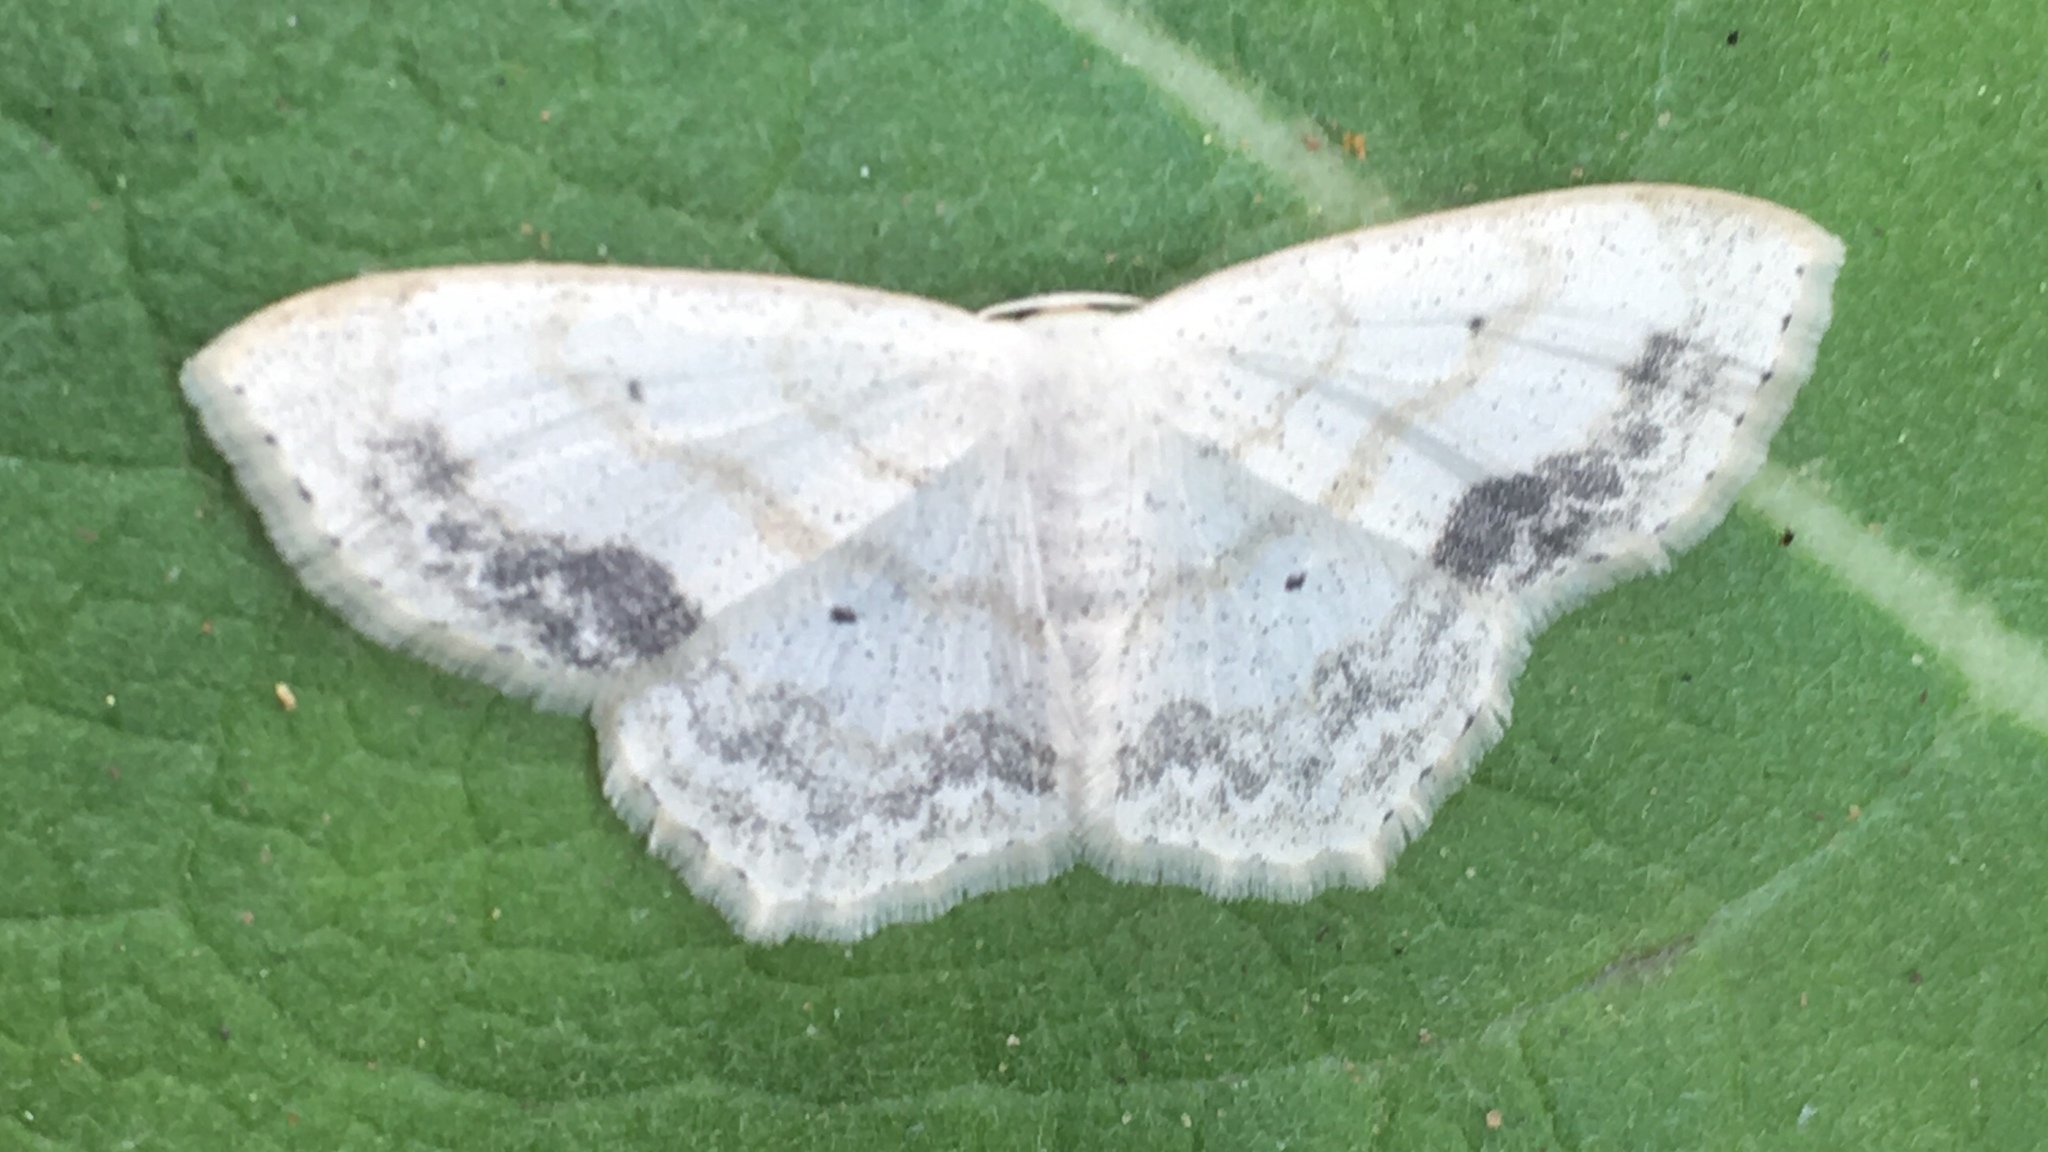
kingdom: Animalia
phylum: Arthropoda
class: Insecta
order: Lepidoptera
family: Geometridae
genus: Scopula
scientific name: Scopula limboundata
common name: Large lace border
